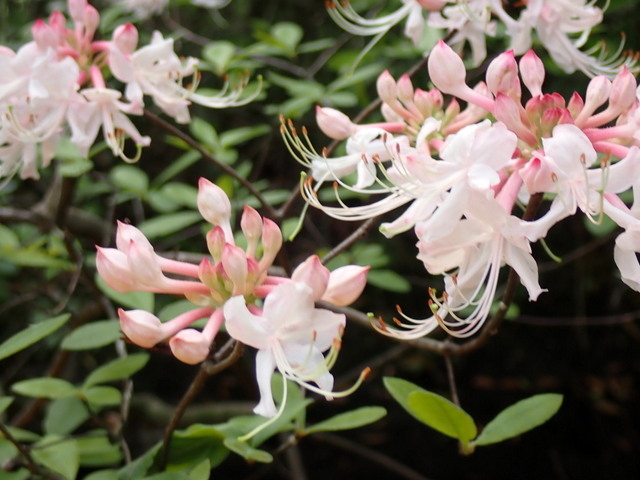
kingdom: Plantae
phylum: Tracheophyta
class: Magnoliopsida
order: Ericales
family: Ericaceae
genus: Rhododendron
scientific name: Rhododendron canescens
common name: Mountain azalea
